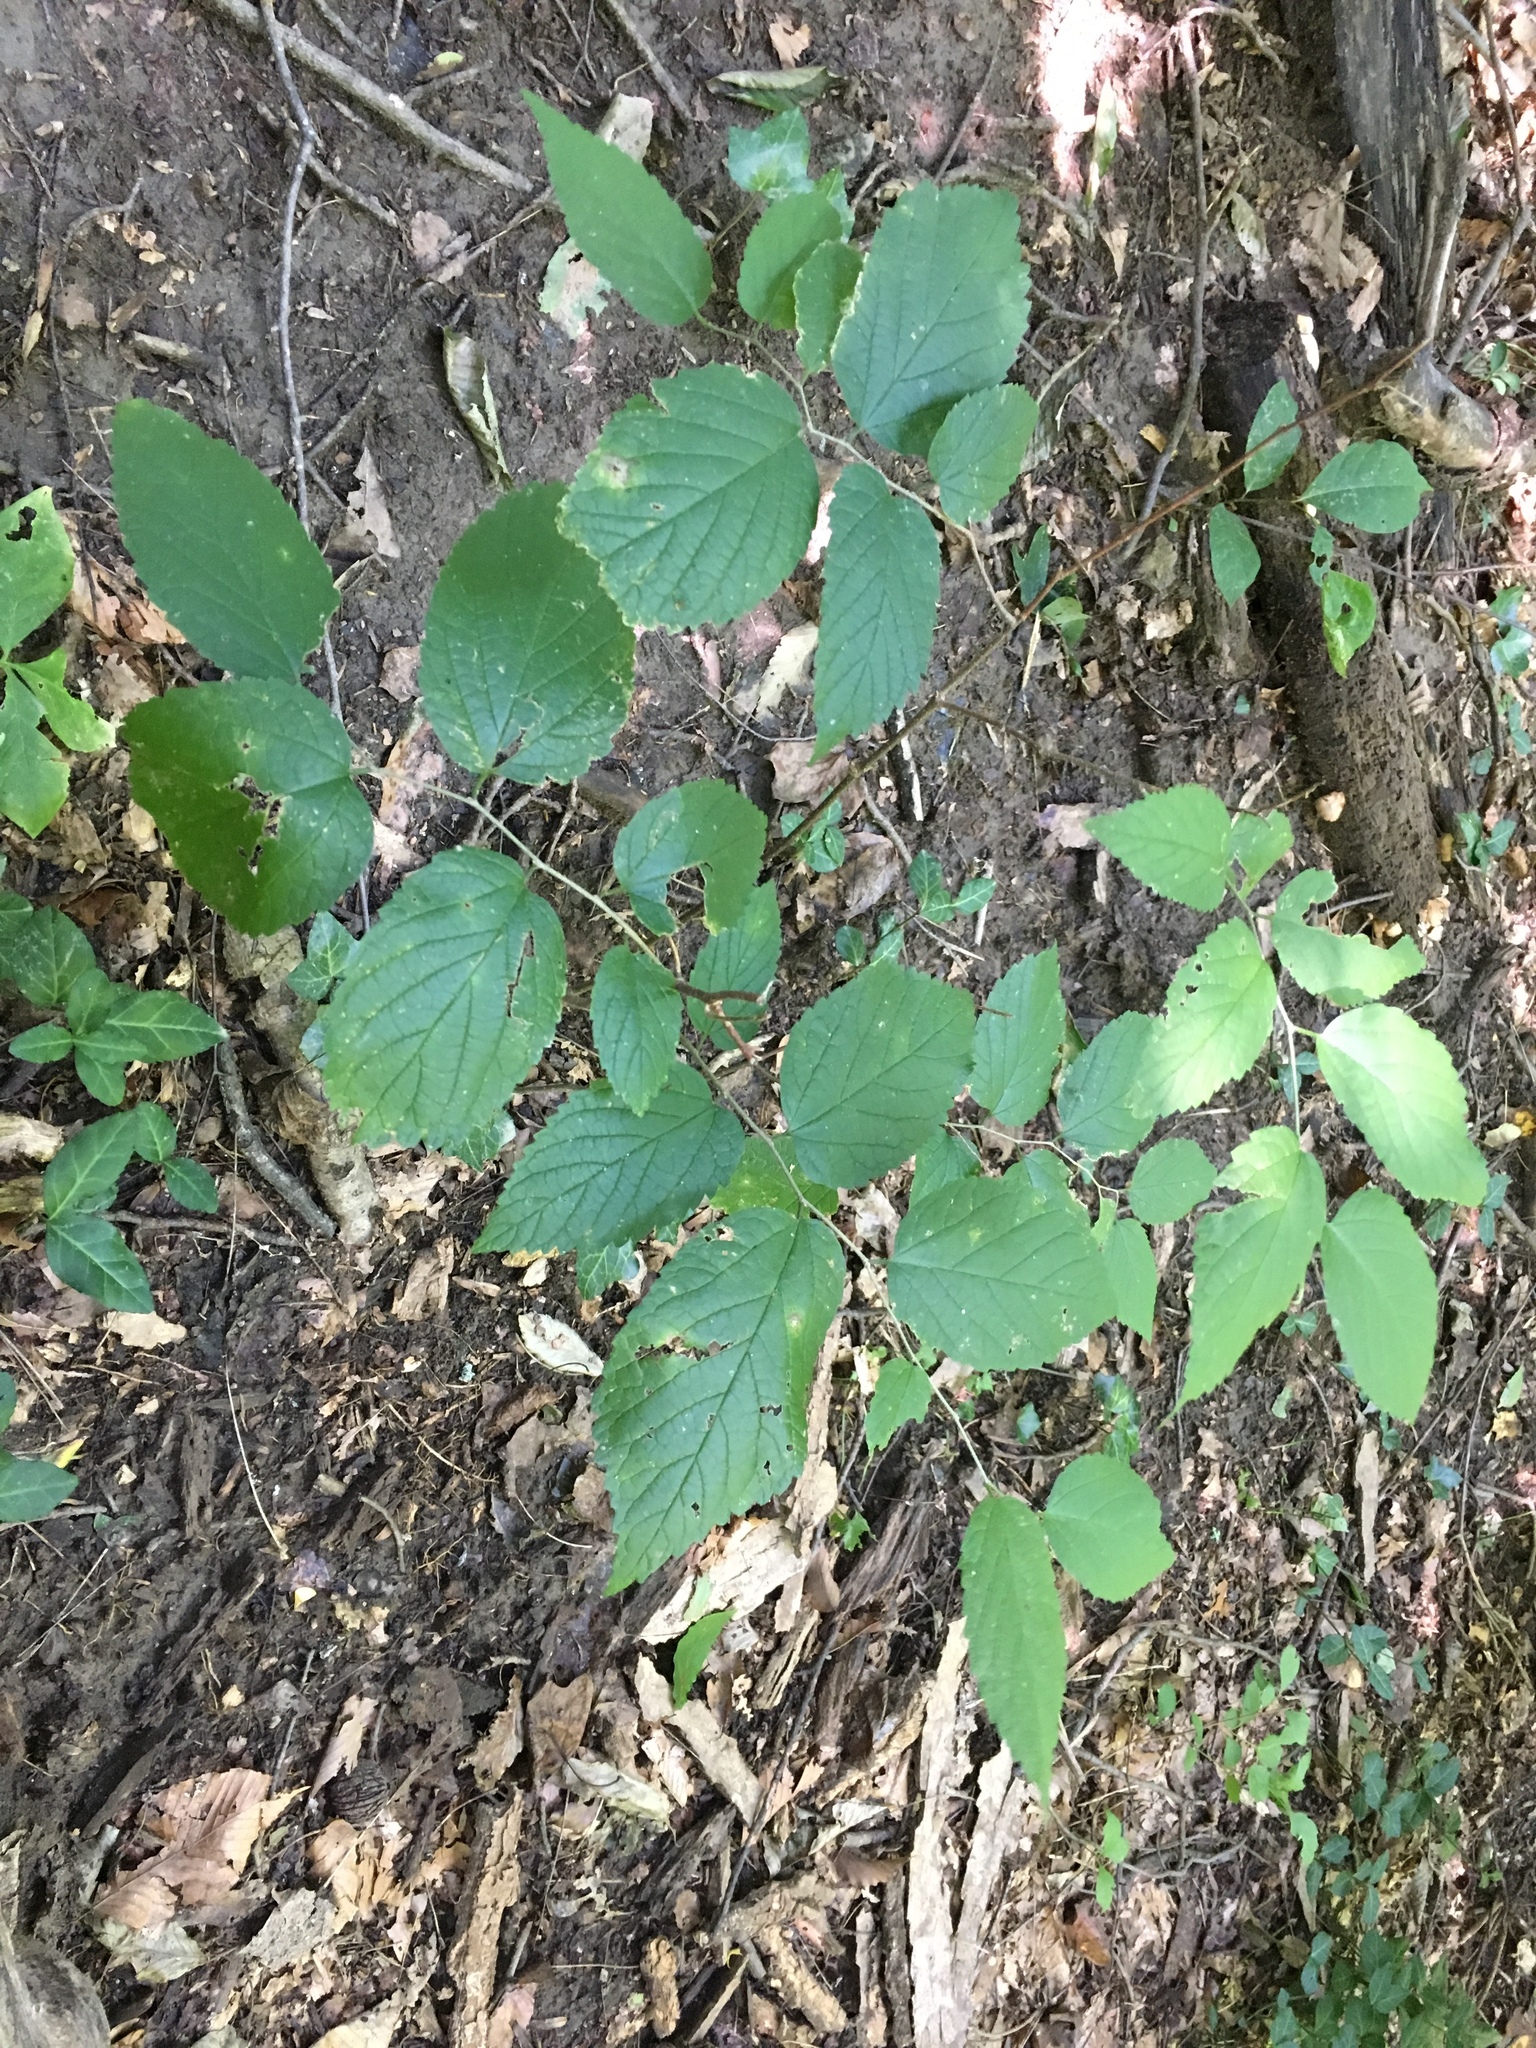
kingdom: Plantae
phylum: Tracheophyta
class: Magnoliopsida
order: Rosales
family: Cannabaceae
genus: Celtis
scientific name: Celtis occidentalis
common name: Common hackberry
